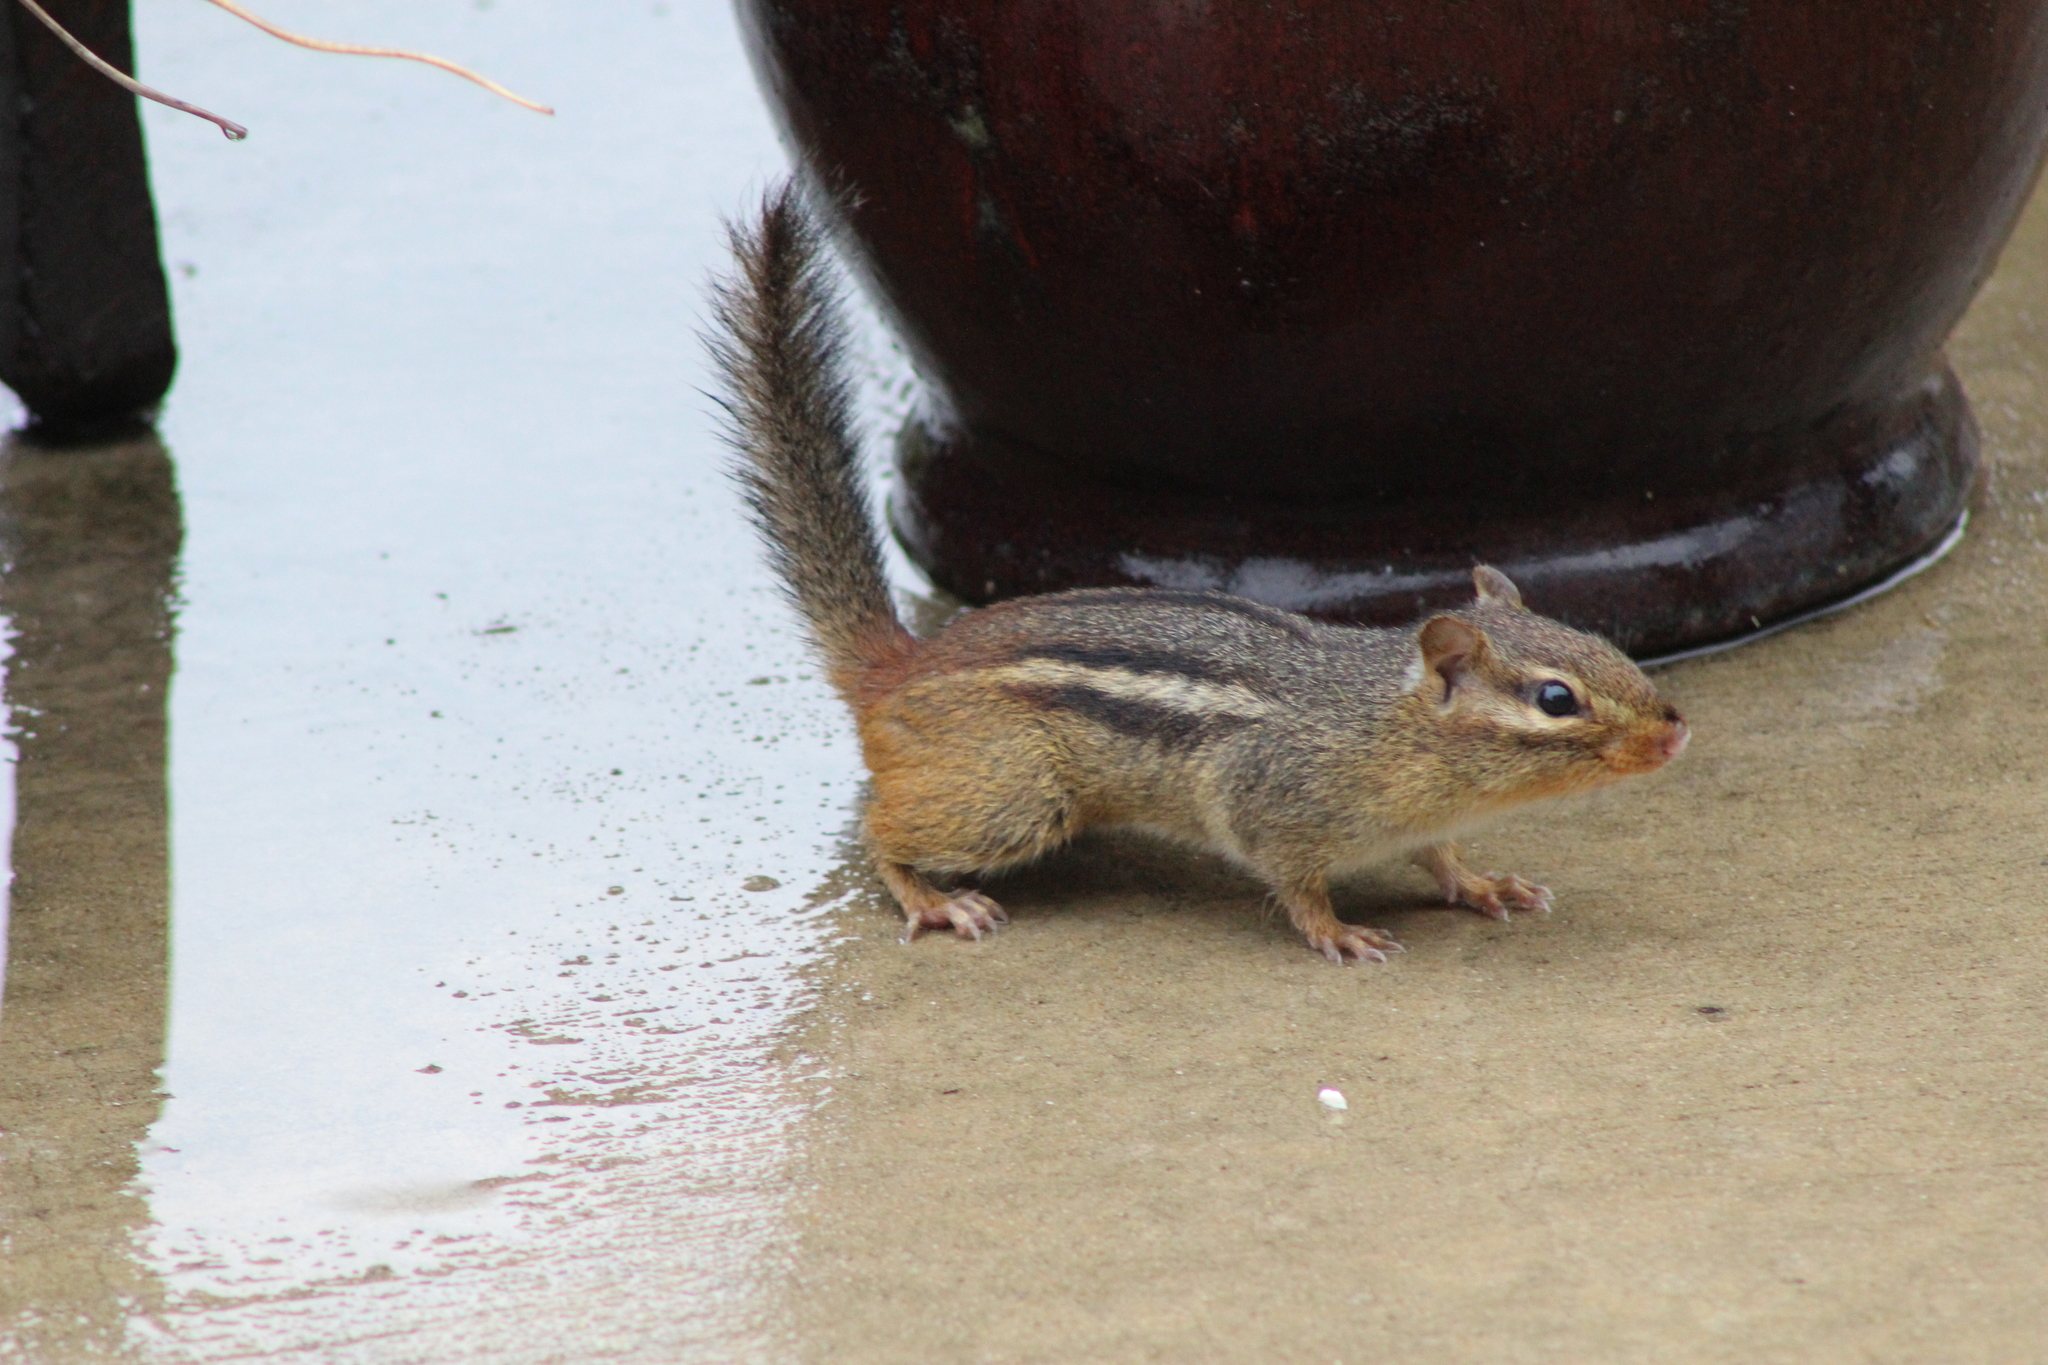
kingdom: Animalia
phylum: Chordata
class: Mammalia
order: Rodentia
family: Sciuridae
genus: Tamias
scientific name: Tamias striatus
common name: Eastern chipmunk
